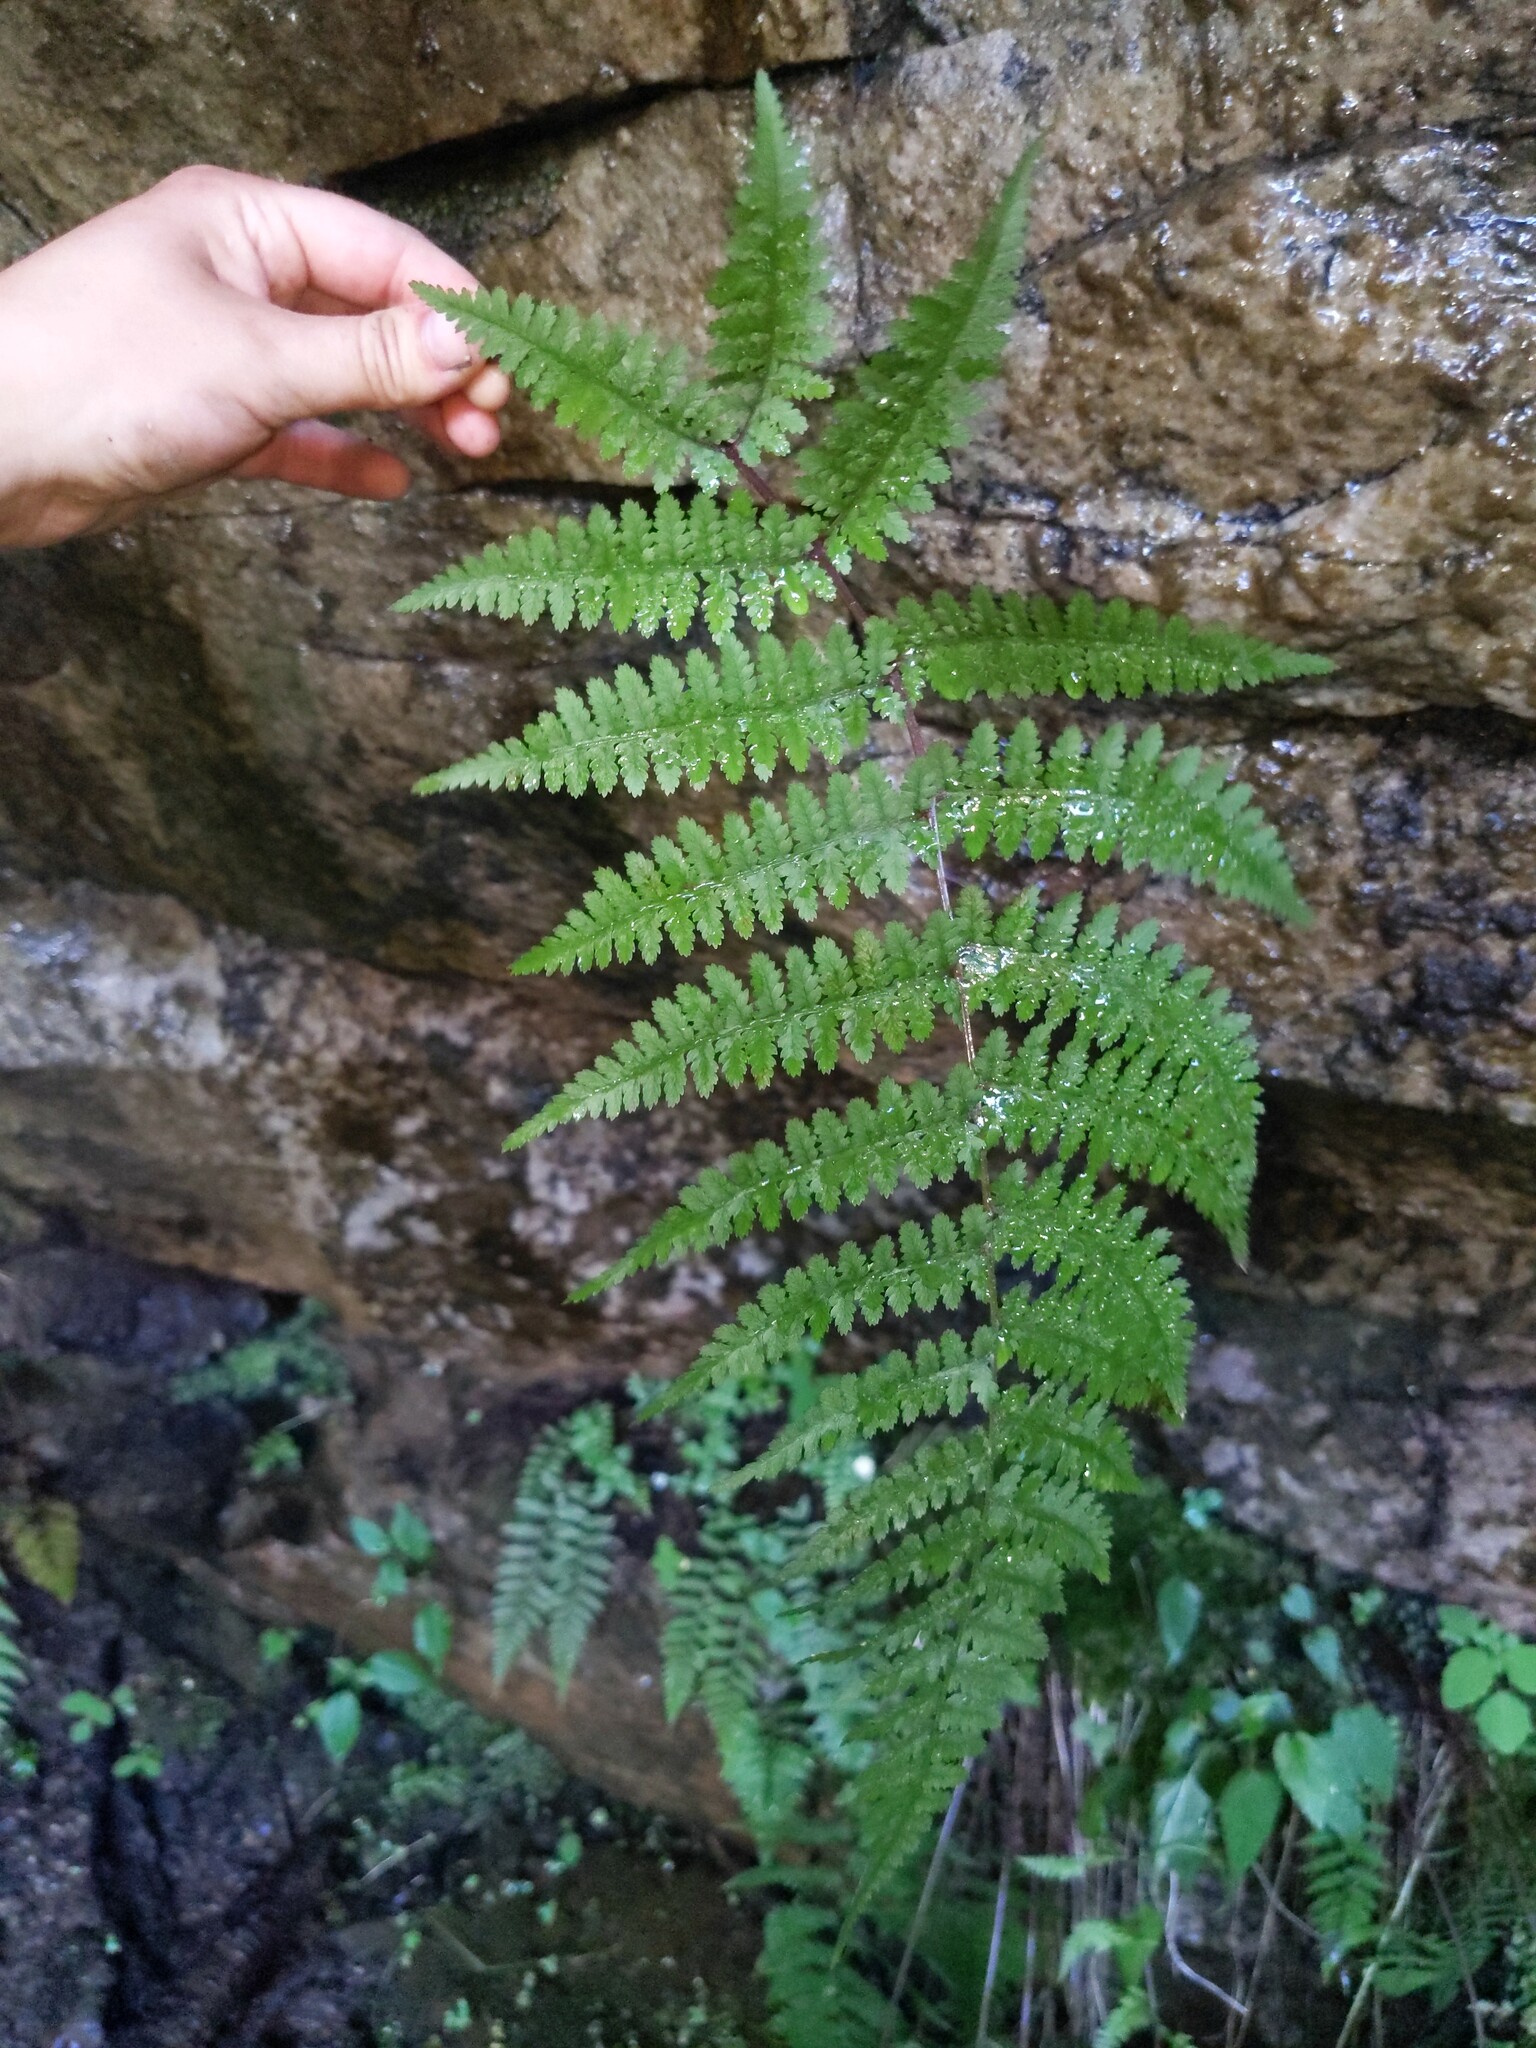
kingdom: Plantae
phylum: Tracheophyta
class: Polypodiopsida
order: Polypodiales
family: Athyriaceae
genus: Athyrium
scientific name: Athyrium asplenioides
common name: Southern lady fern
